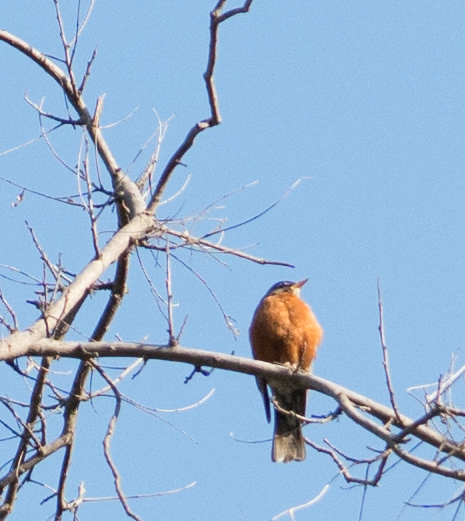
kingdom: Animalia
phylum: Chordata
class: Aves
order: Passeriformes
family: Turdidae
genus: Turdus
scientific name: Turdus migratorius
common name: American robin
